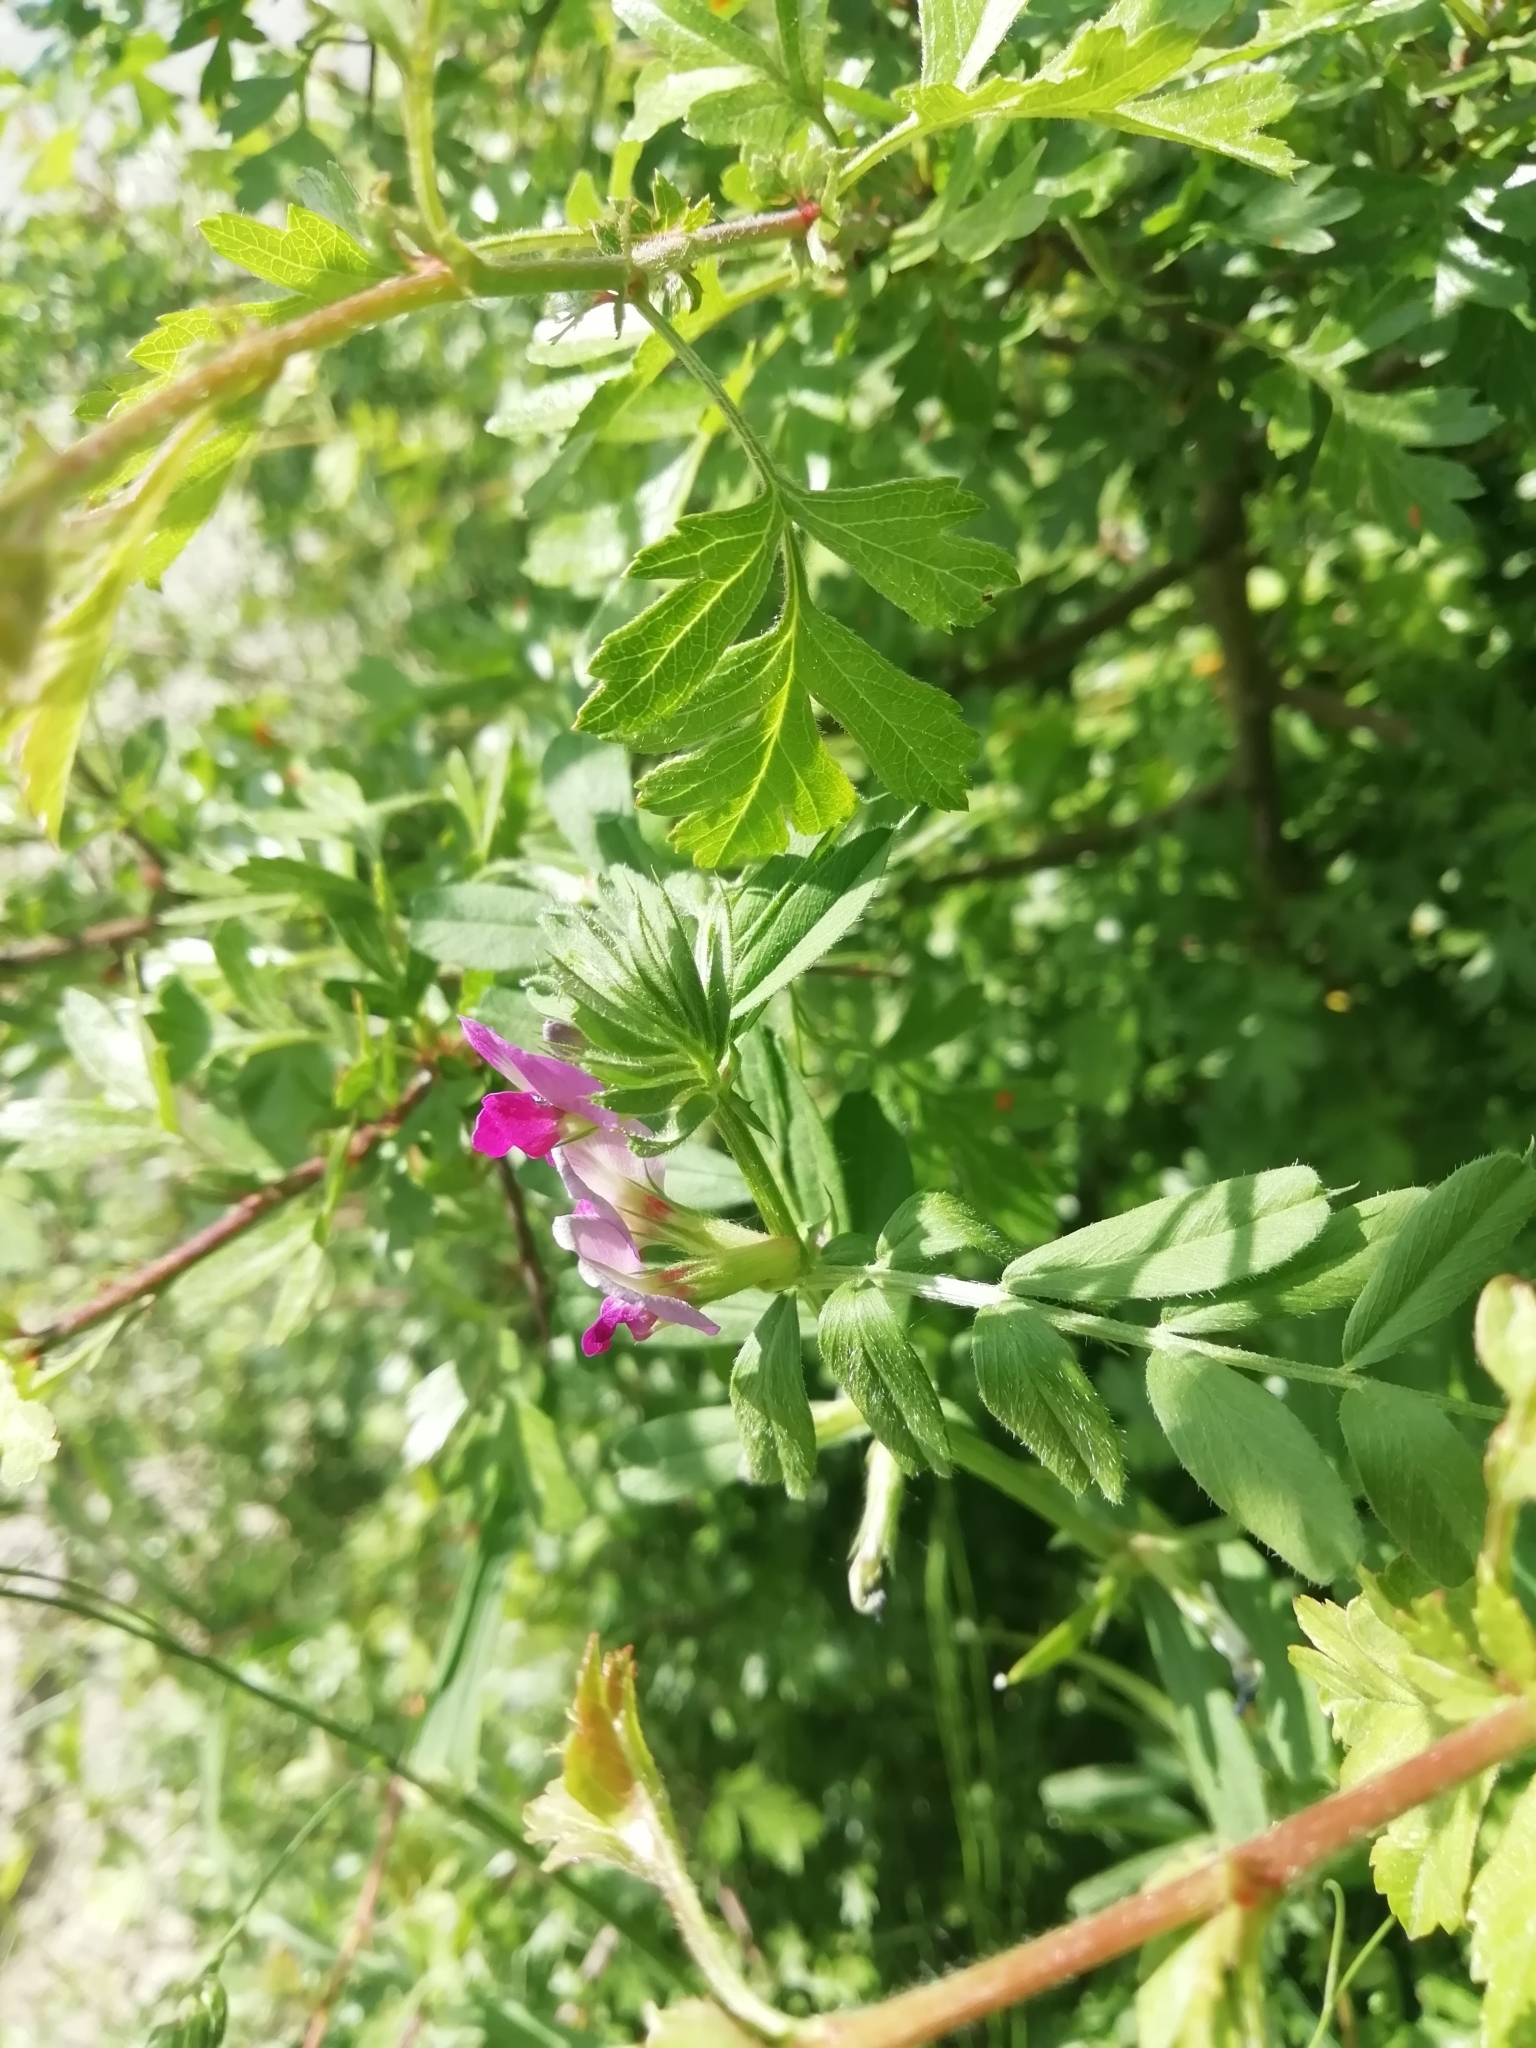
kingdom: Plantae
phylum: Tracheophyta
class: Magnoliopsida
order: Fabales
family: Fabaceae
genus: Vicia
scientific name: Vicia sativa
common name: Garden vetch
